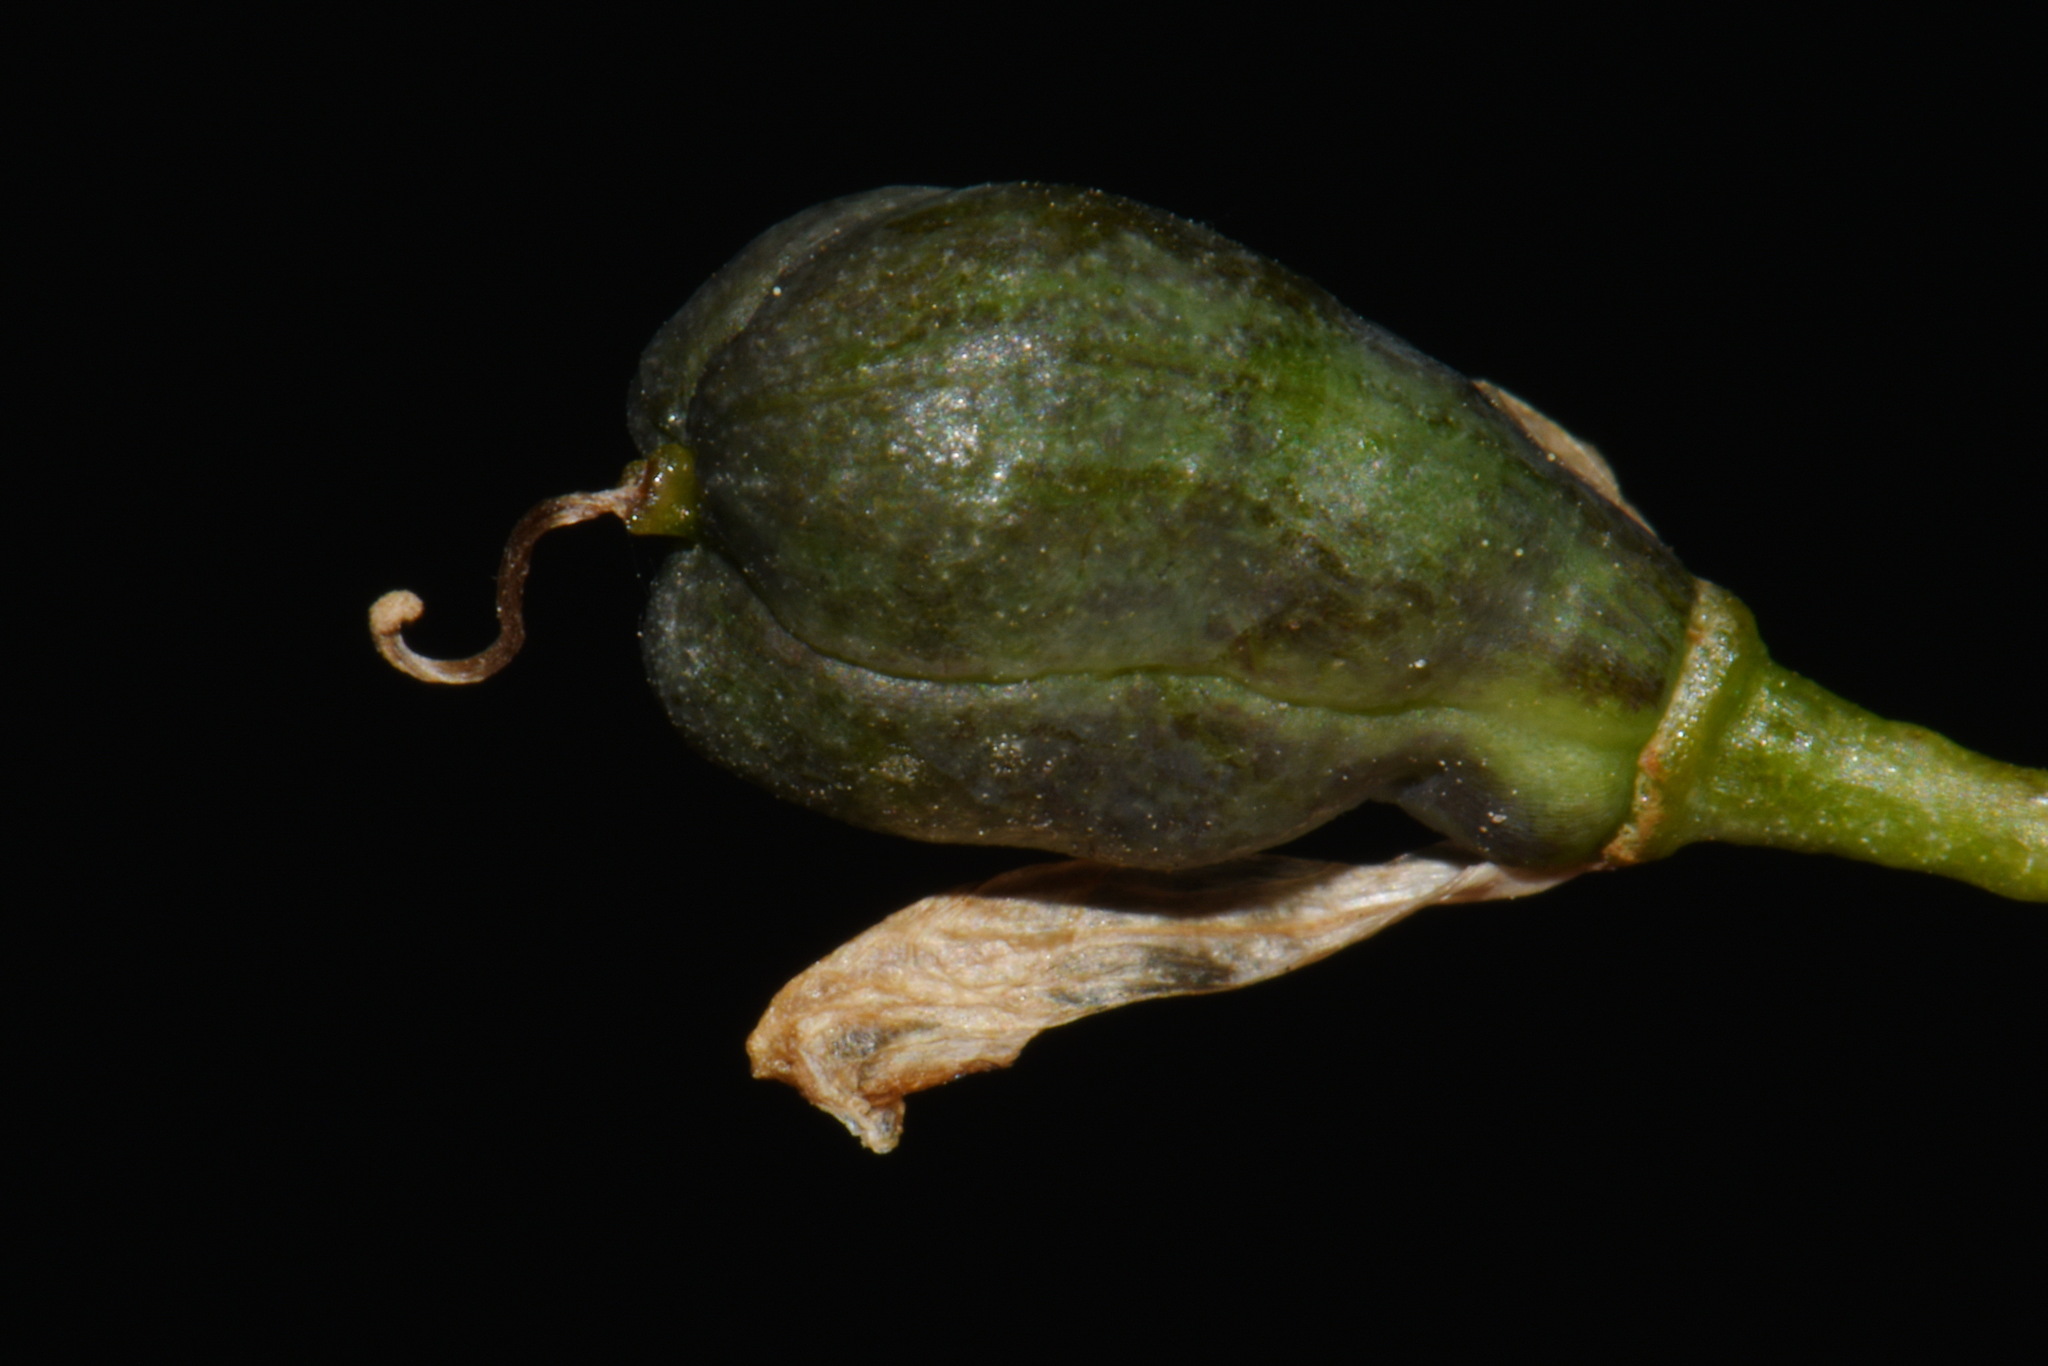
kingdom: Plantae
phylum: Tracheophyta
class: Liliopsida
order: Asparagales
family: Amaryllidaceae
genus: Nothoscordum
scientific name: Nothoscordum gracile
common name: Slender false garlic
